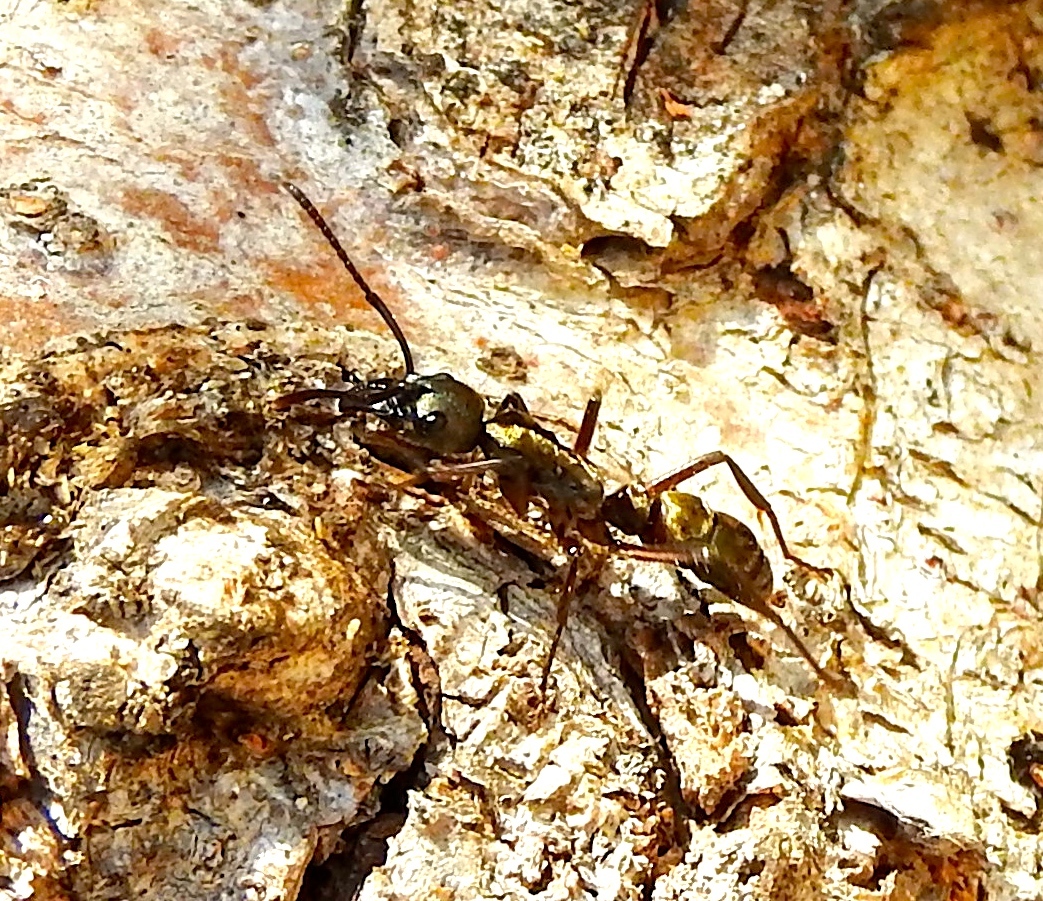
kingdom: Animalia
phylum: Arthropoda
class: Insecta
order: Hymenoptera
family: Formicidae
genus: Pachycondyla
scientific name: Pachycondyla villosa
